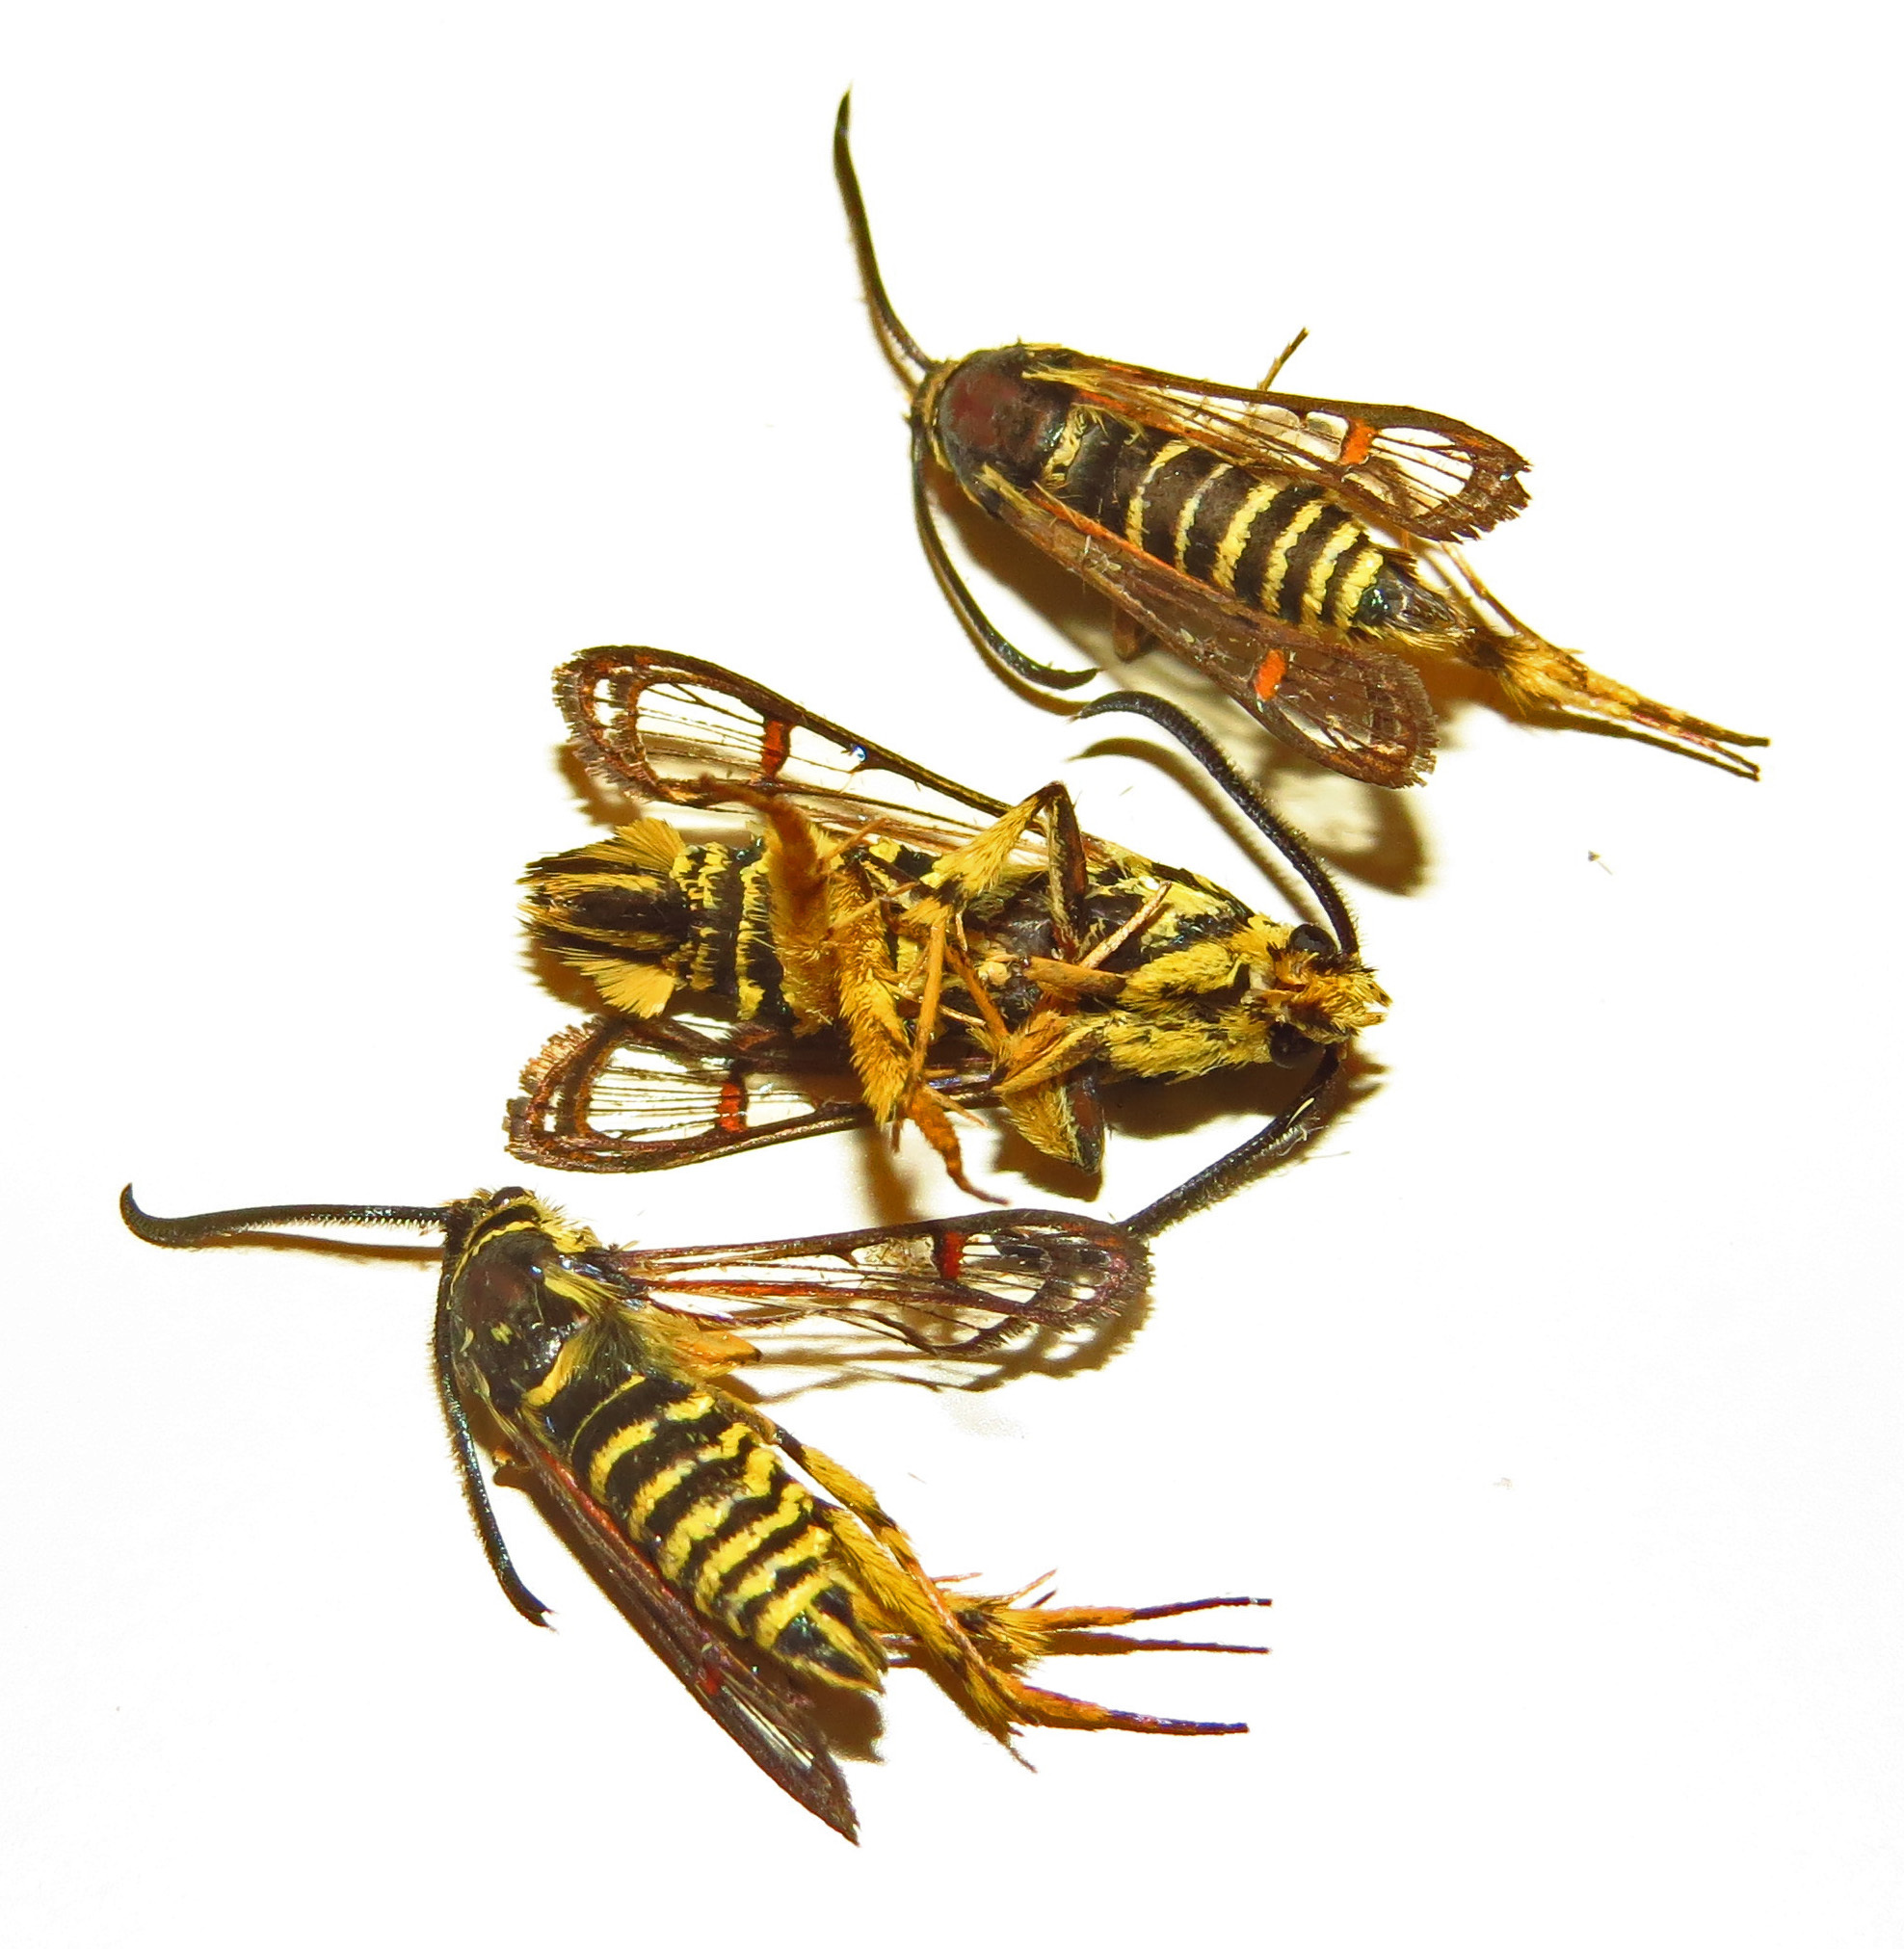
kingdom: Animalia
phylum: Arthropoda
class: Insecta
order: Lepidoptera
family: Sesiidae
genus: Synanthedon
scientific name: Synanthedon rileyana
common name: Riley's clearwing moth
